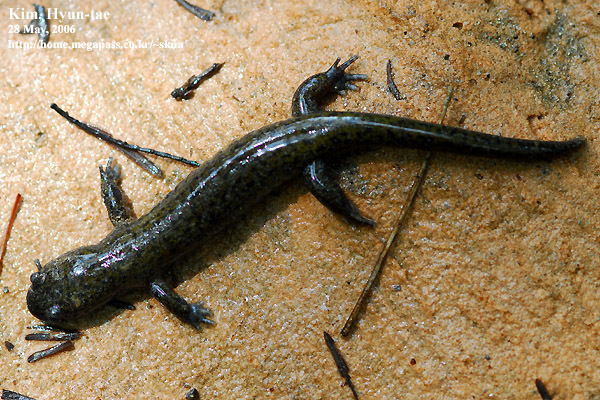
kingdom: Animalia
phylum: Chordata
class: Amphibia
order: Caudata
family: Hynobiidae
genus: Hynobius
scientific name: Hynobius leechii
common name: Gensan salamander
